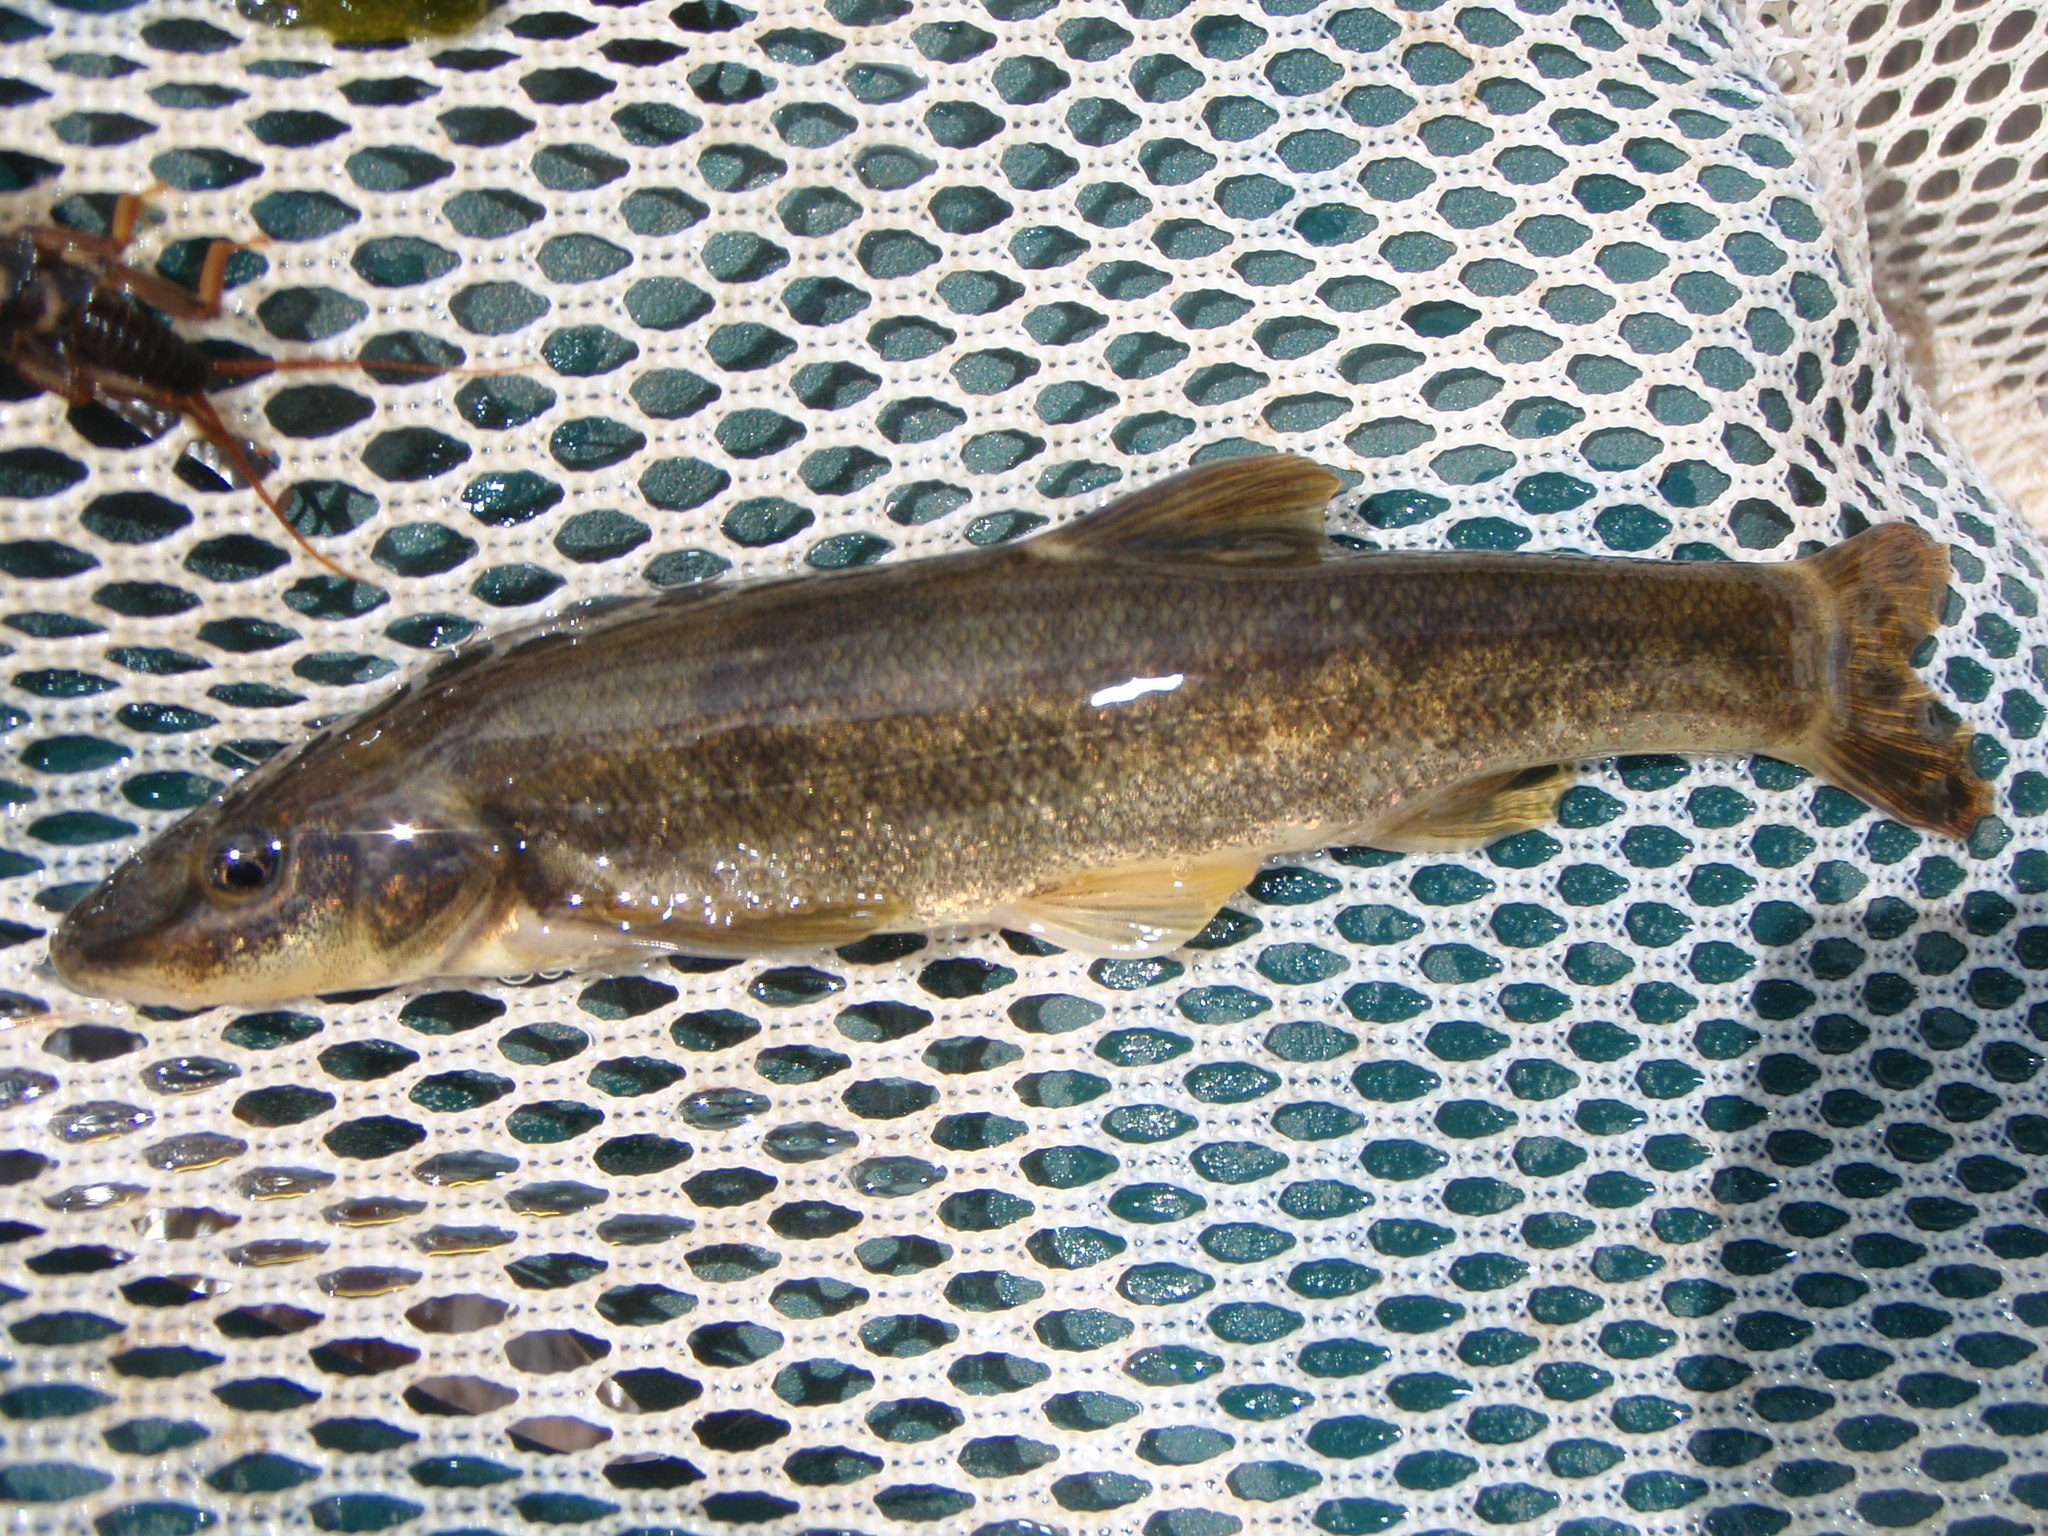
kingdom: Animalia
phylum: Chordata
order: Cypriniformes
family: Cyprinidae
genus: Rhinichthys
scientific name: Rhinichthys cataractae
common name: Longnose dace
